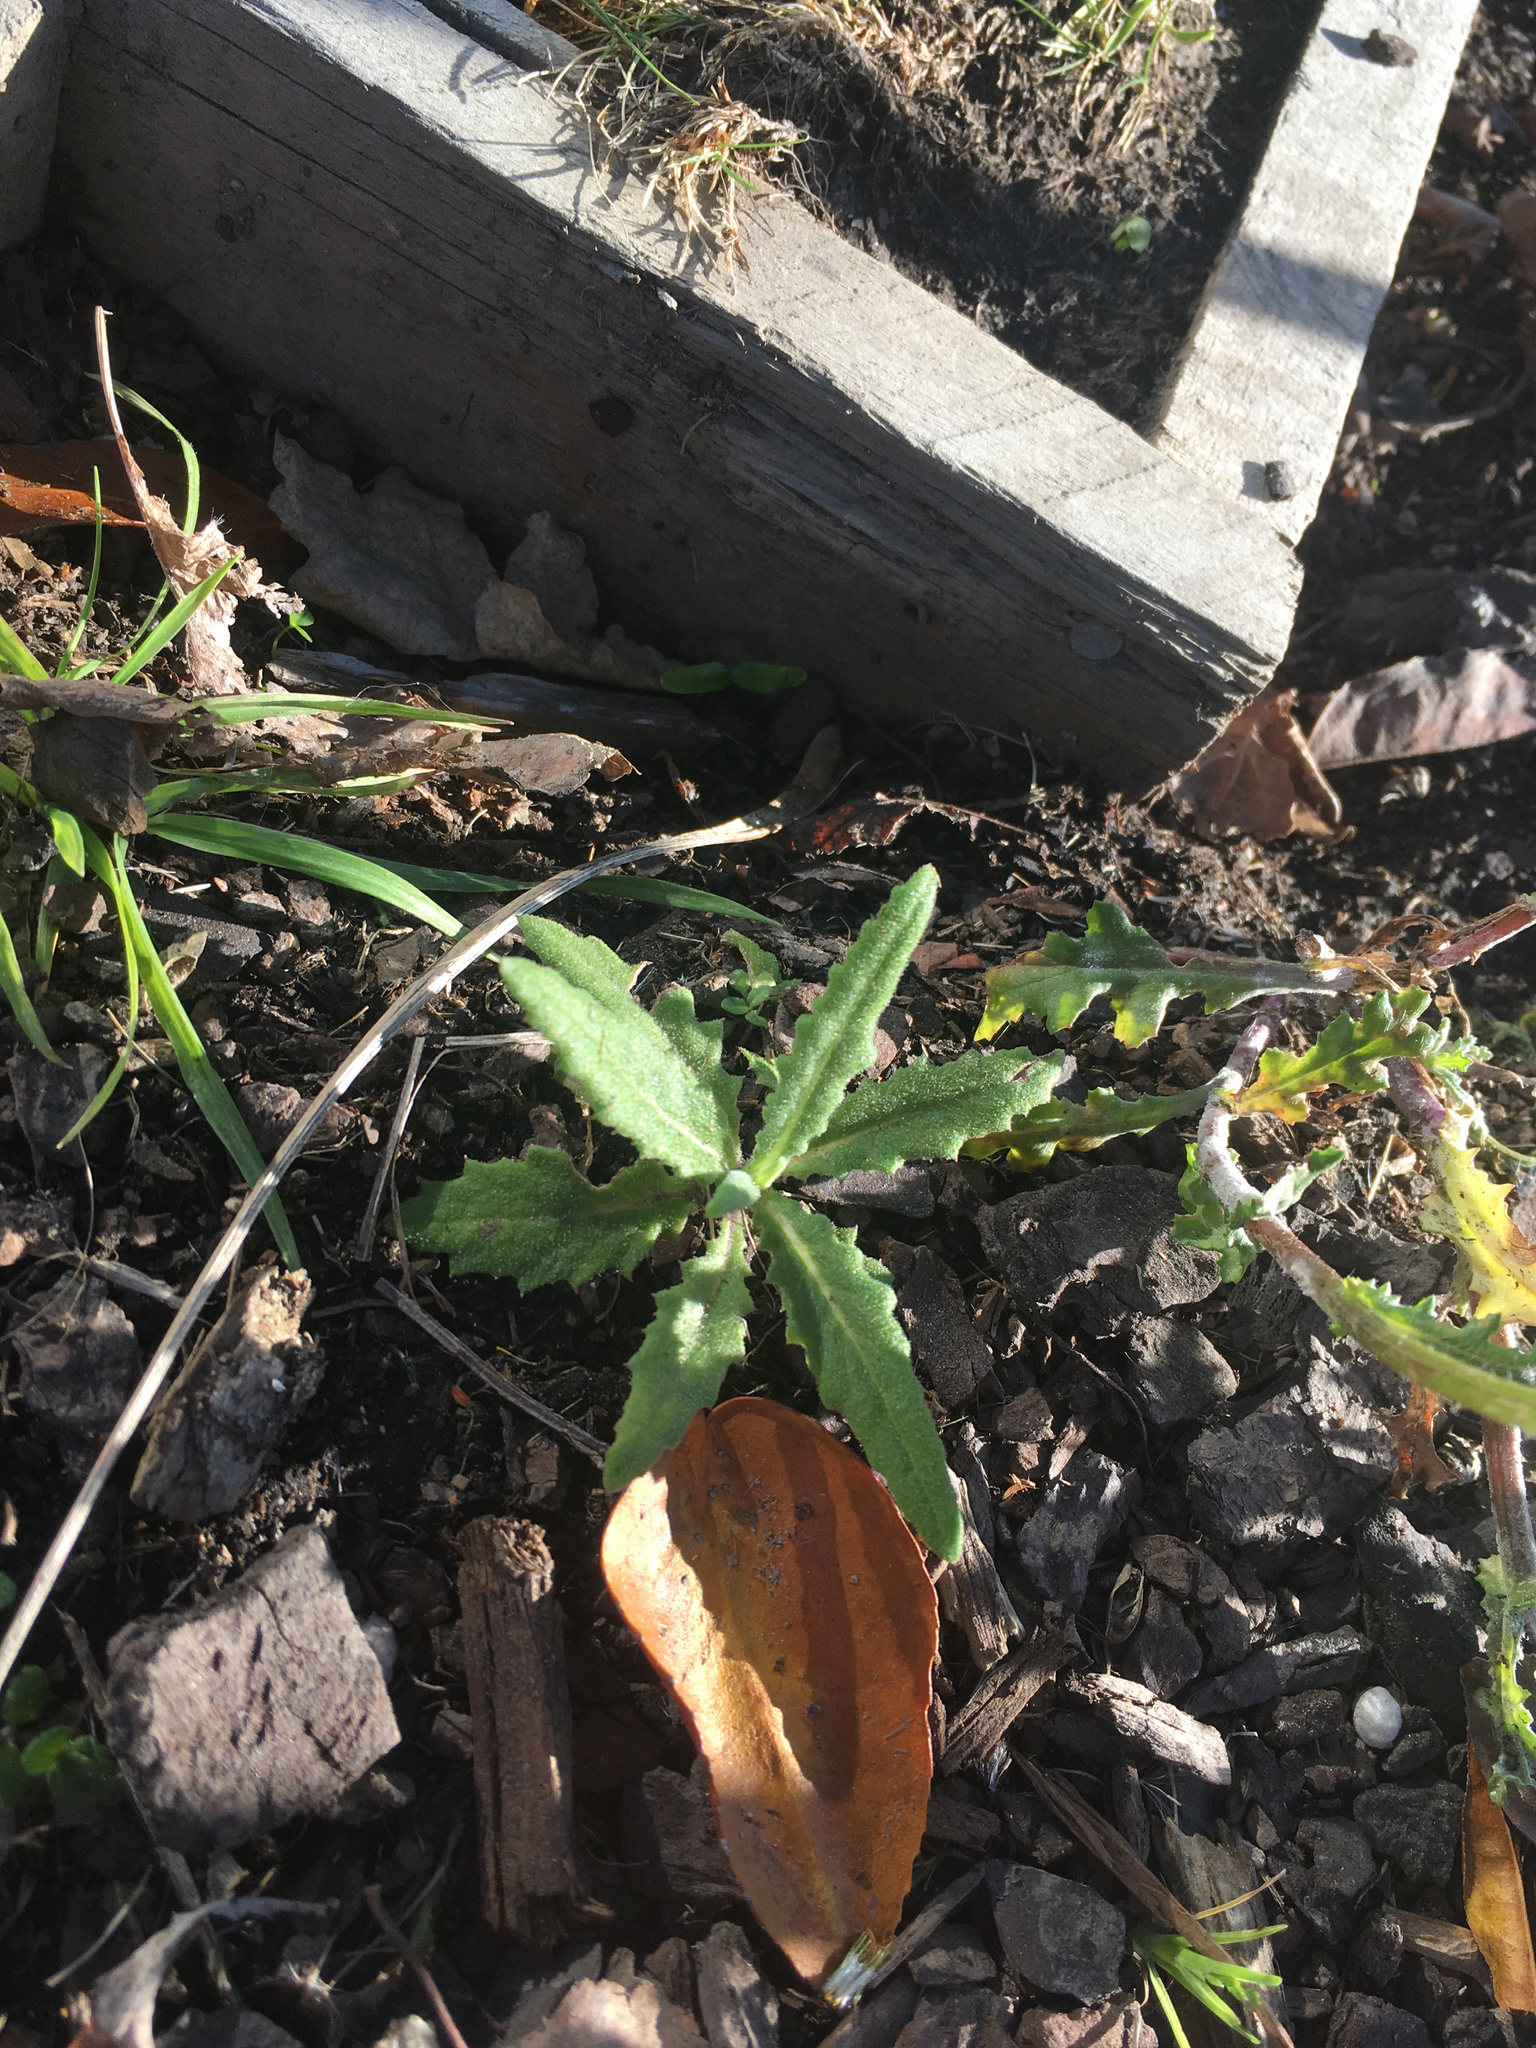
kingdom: Plantae
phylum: Tracheophyta
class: Magnoliopsida
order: Asterales
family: Asteraceae
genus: Senecio
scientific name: Senecio minimus
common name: Toothed fireweed
